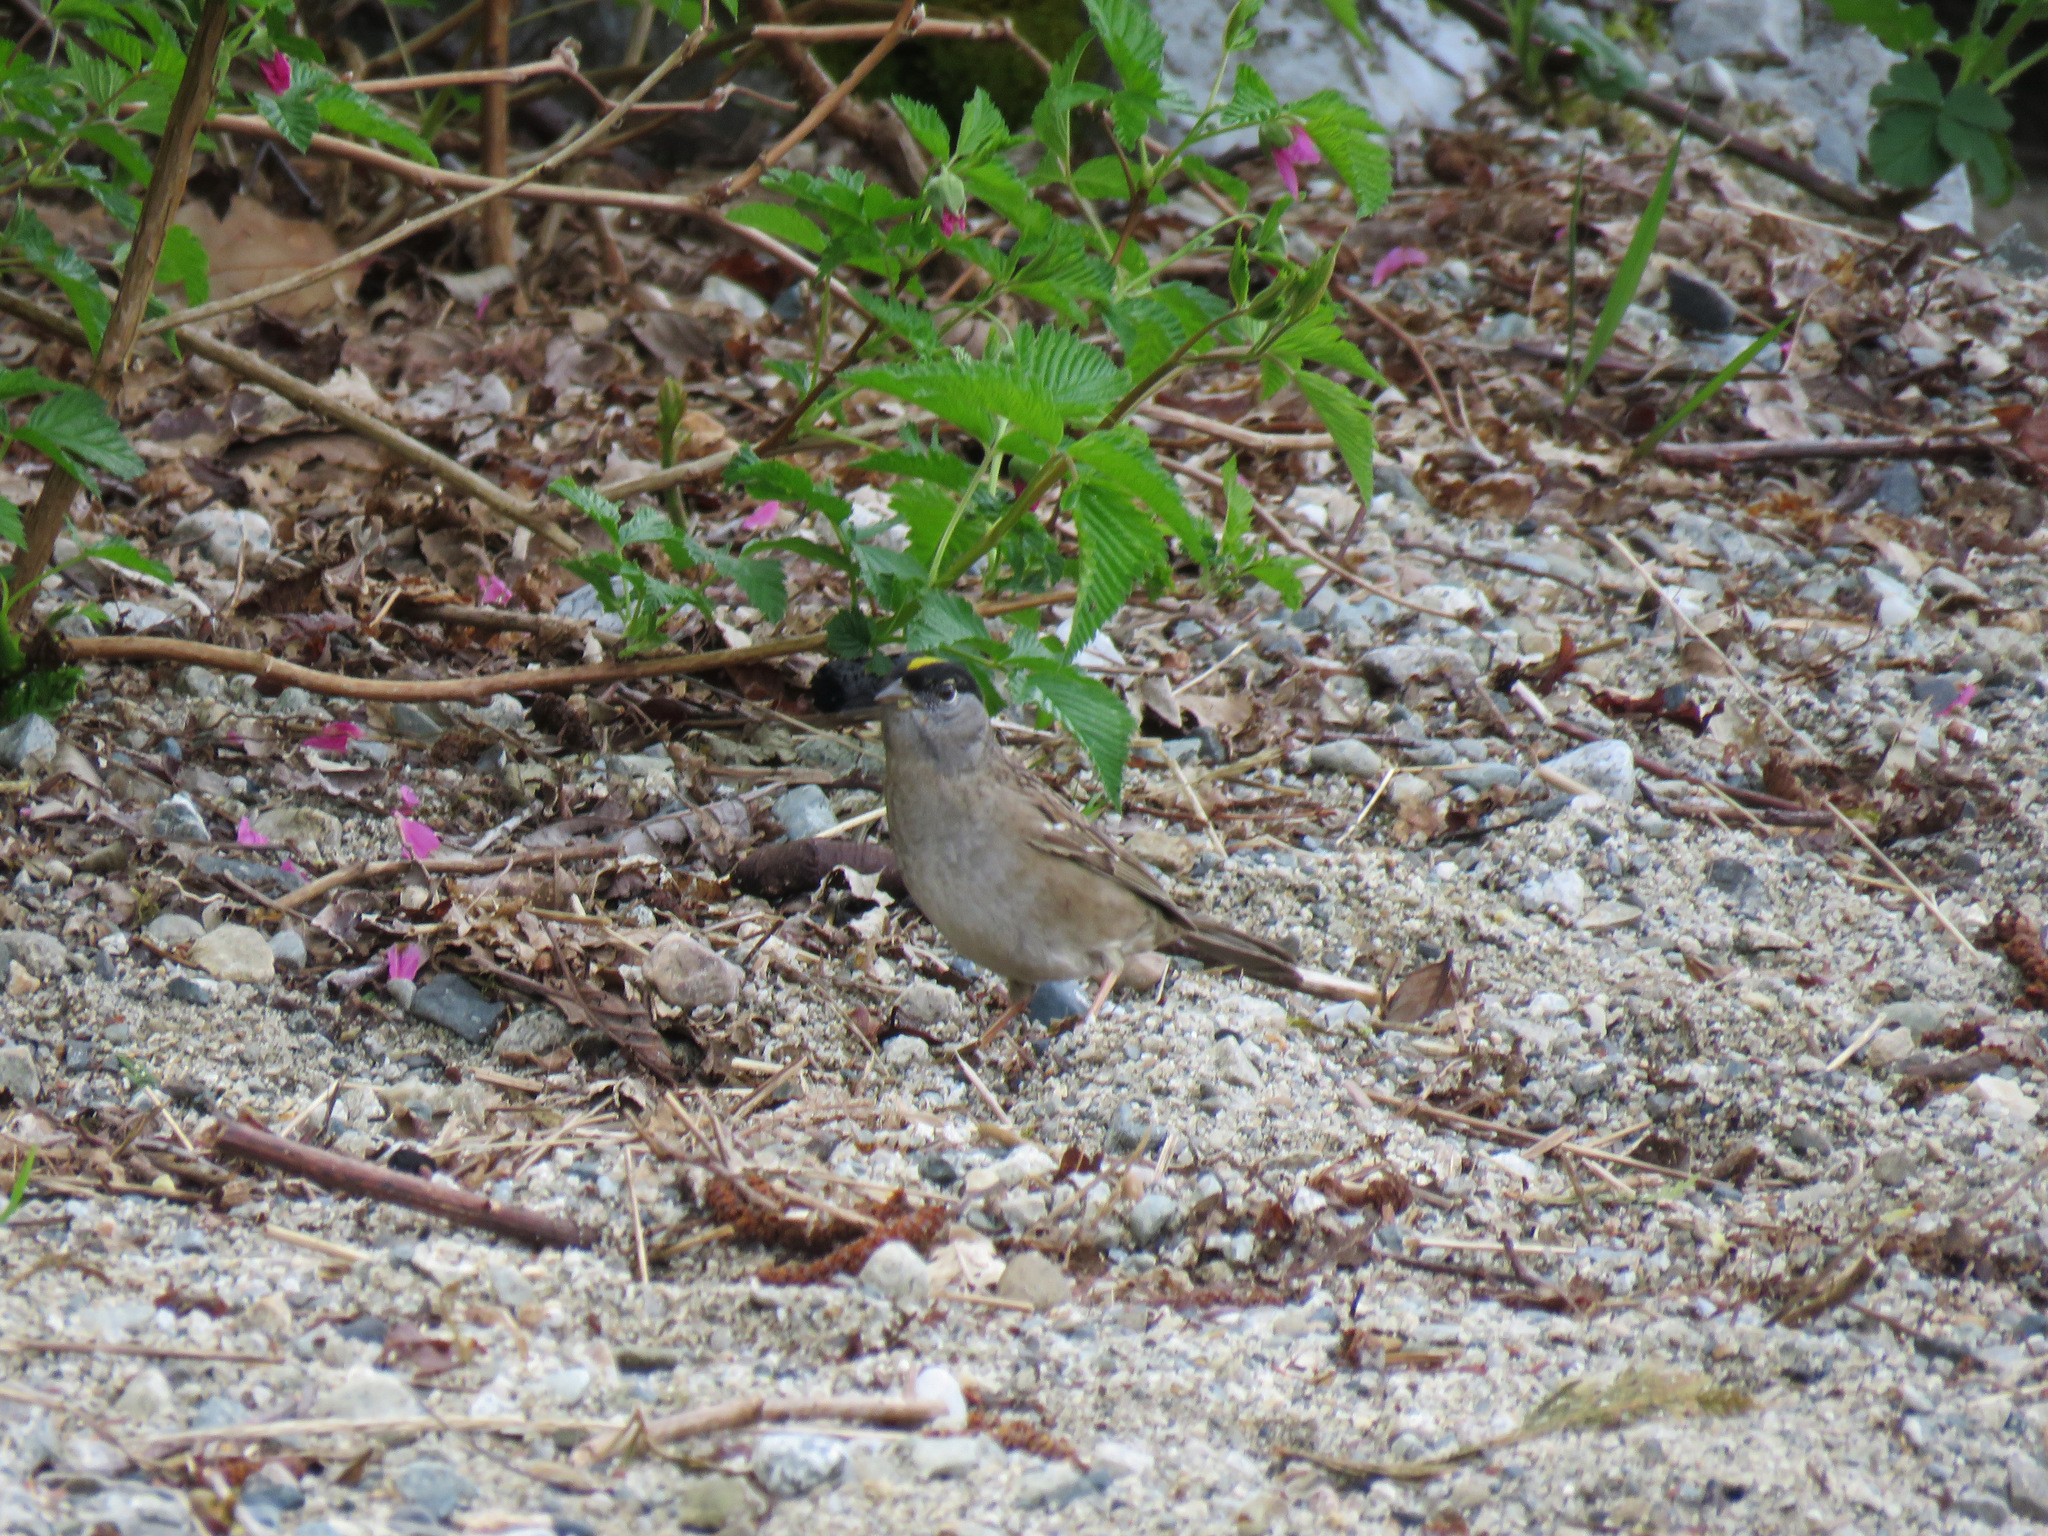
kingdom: Animalia
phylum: Chordata
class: Aves
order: Passeriformes
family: Passerellidae
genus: Zonotrichia
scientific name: Zonotrichia atricapilla
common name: Golden-crowned sparrow
